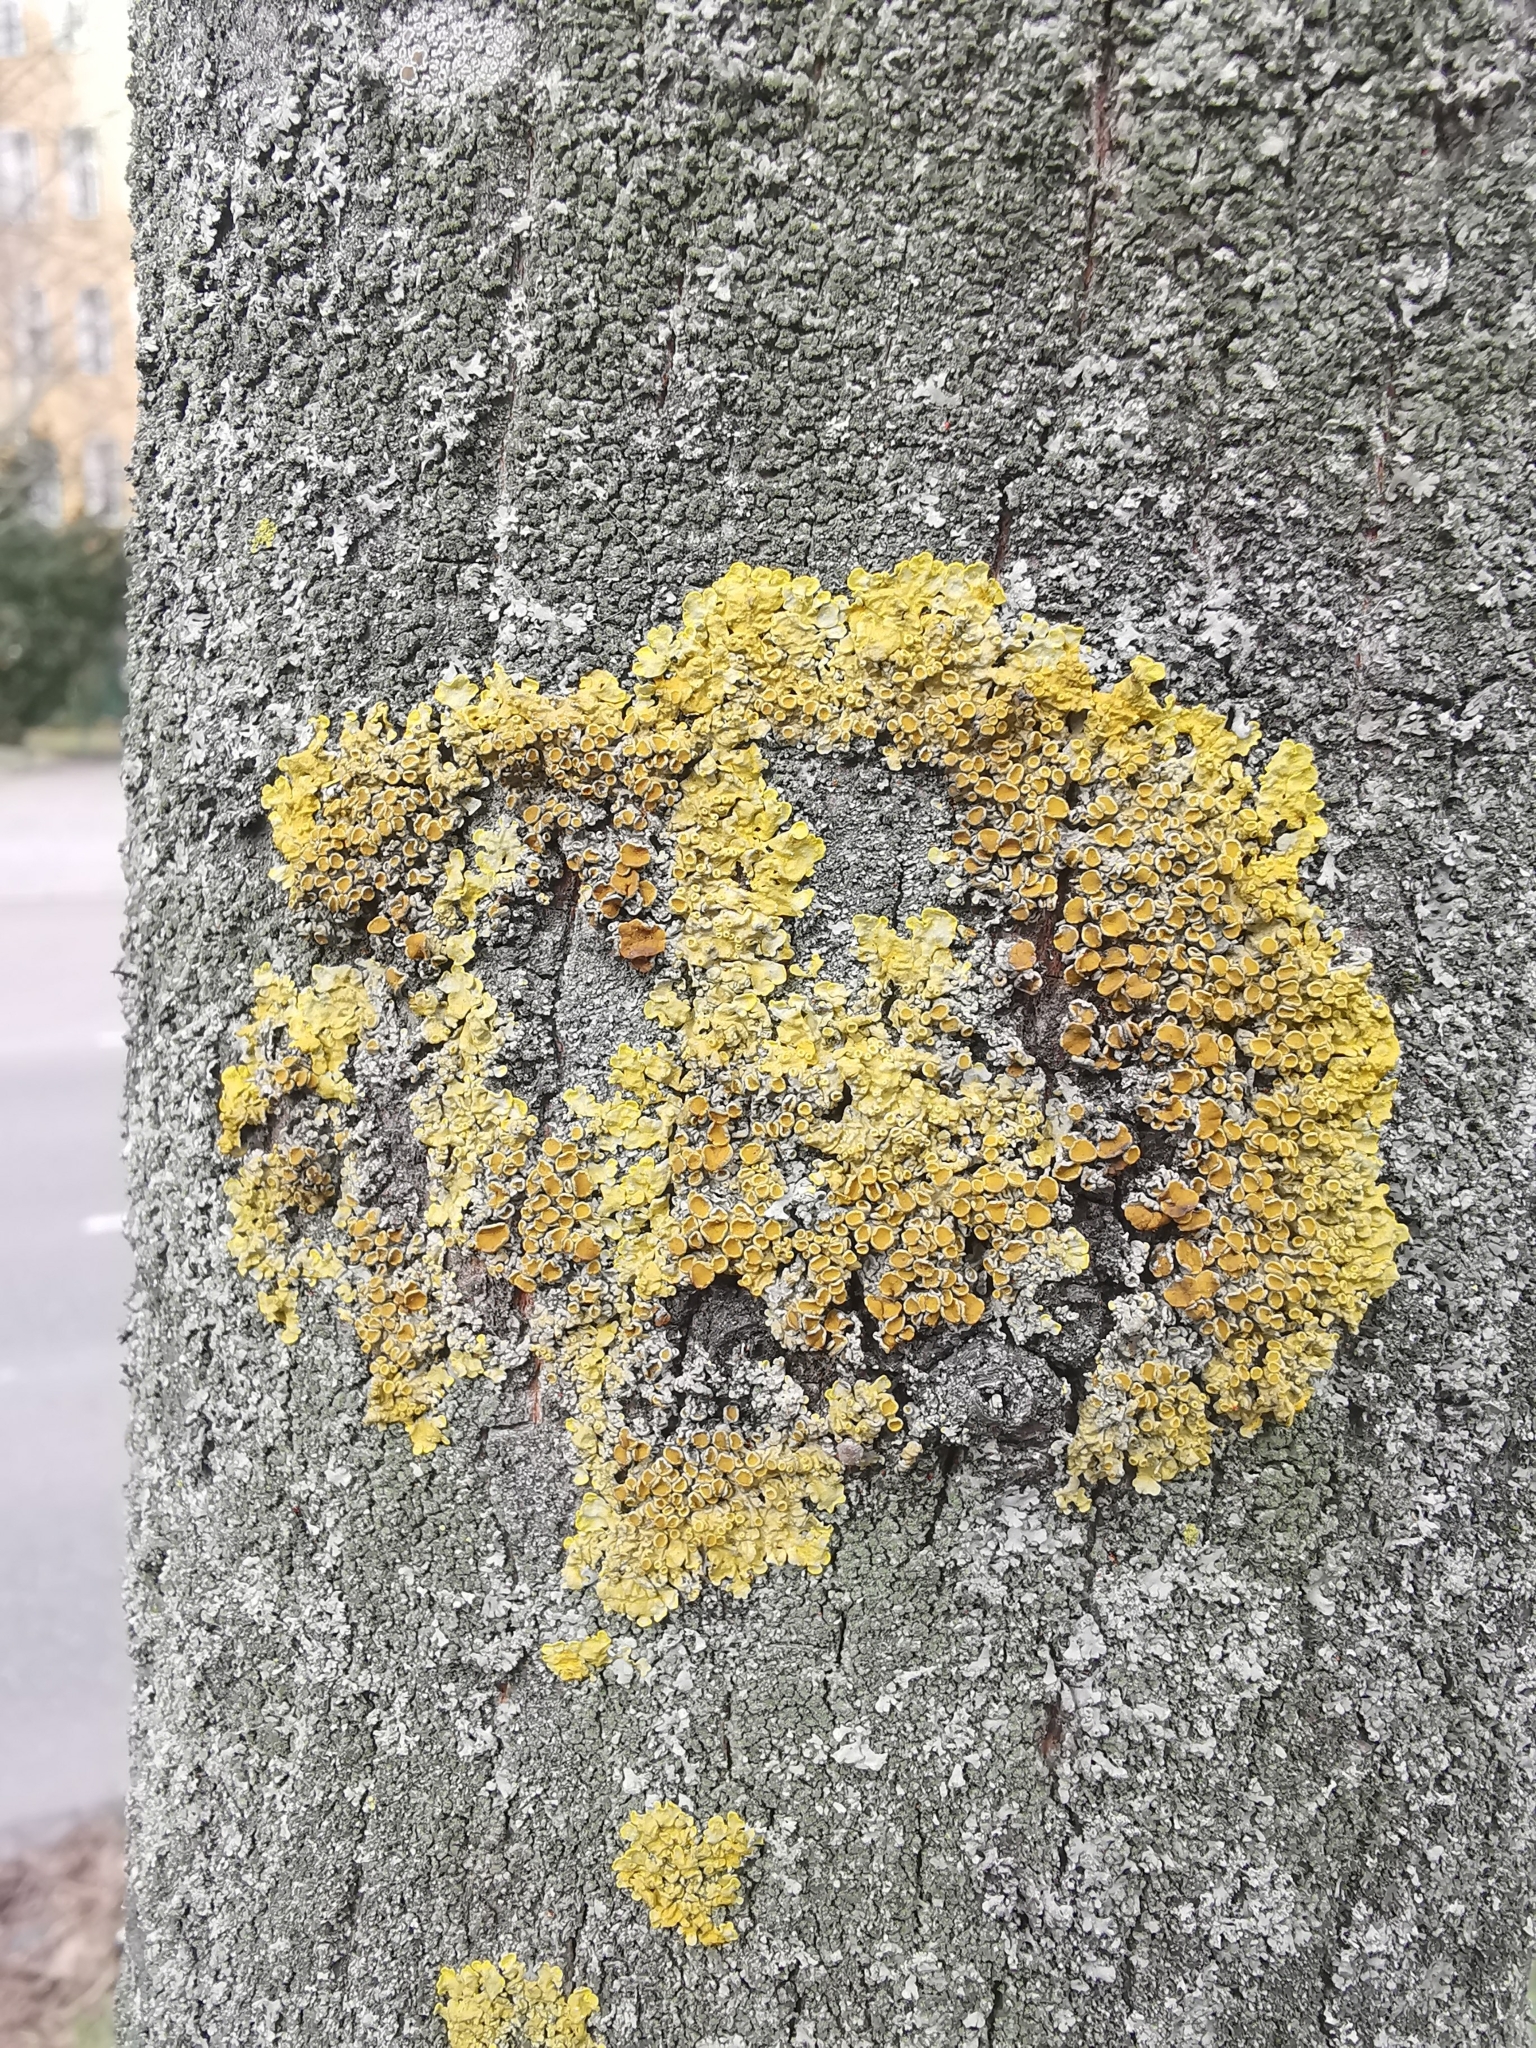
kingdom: Fungi
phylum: Ascomycota
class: Lecanoromycetes
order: Teloschistales
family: Teloschistaceae
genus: Xanthoria
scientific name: Xanthoria parietina
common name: Common orange lichen
